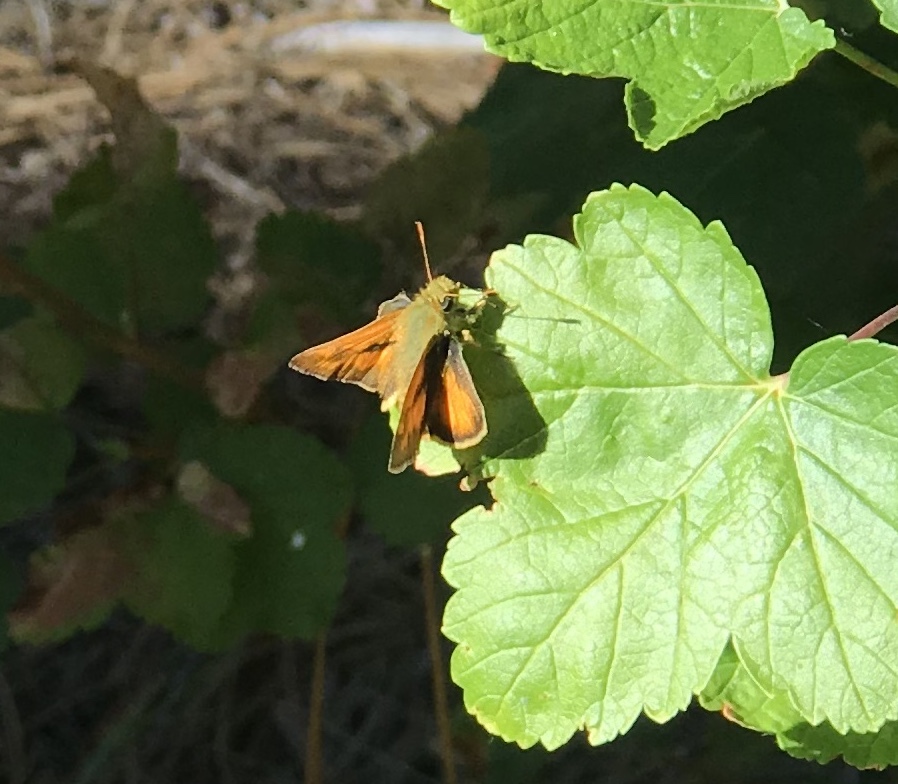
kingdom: Animalia
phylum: Arthropoda
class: Insecta
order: Lepidoptera
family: Hesperiidae
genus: Ochlodes
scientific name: Ochlodes sylvanoides
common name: Woodland skipper
